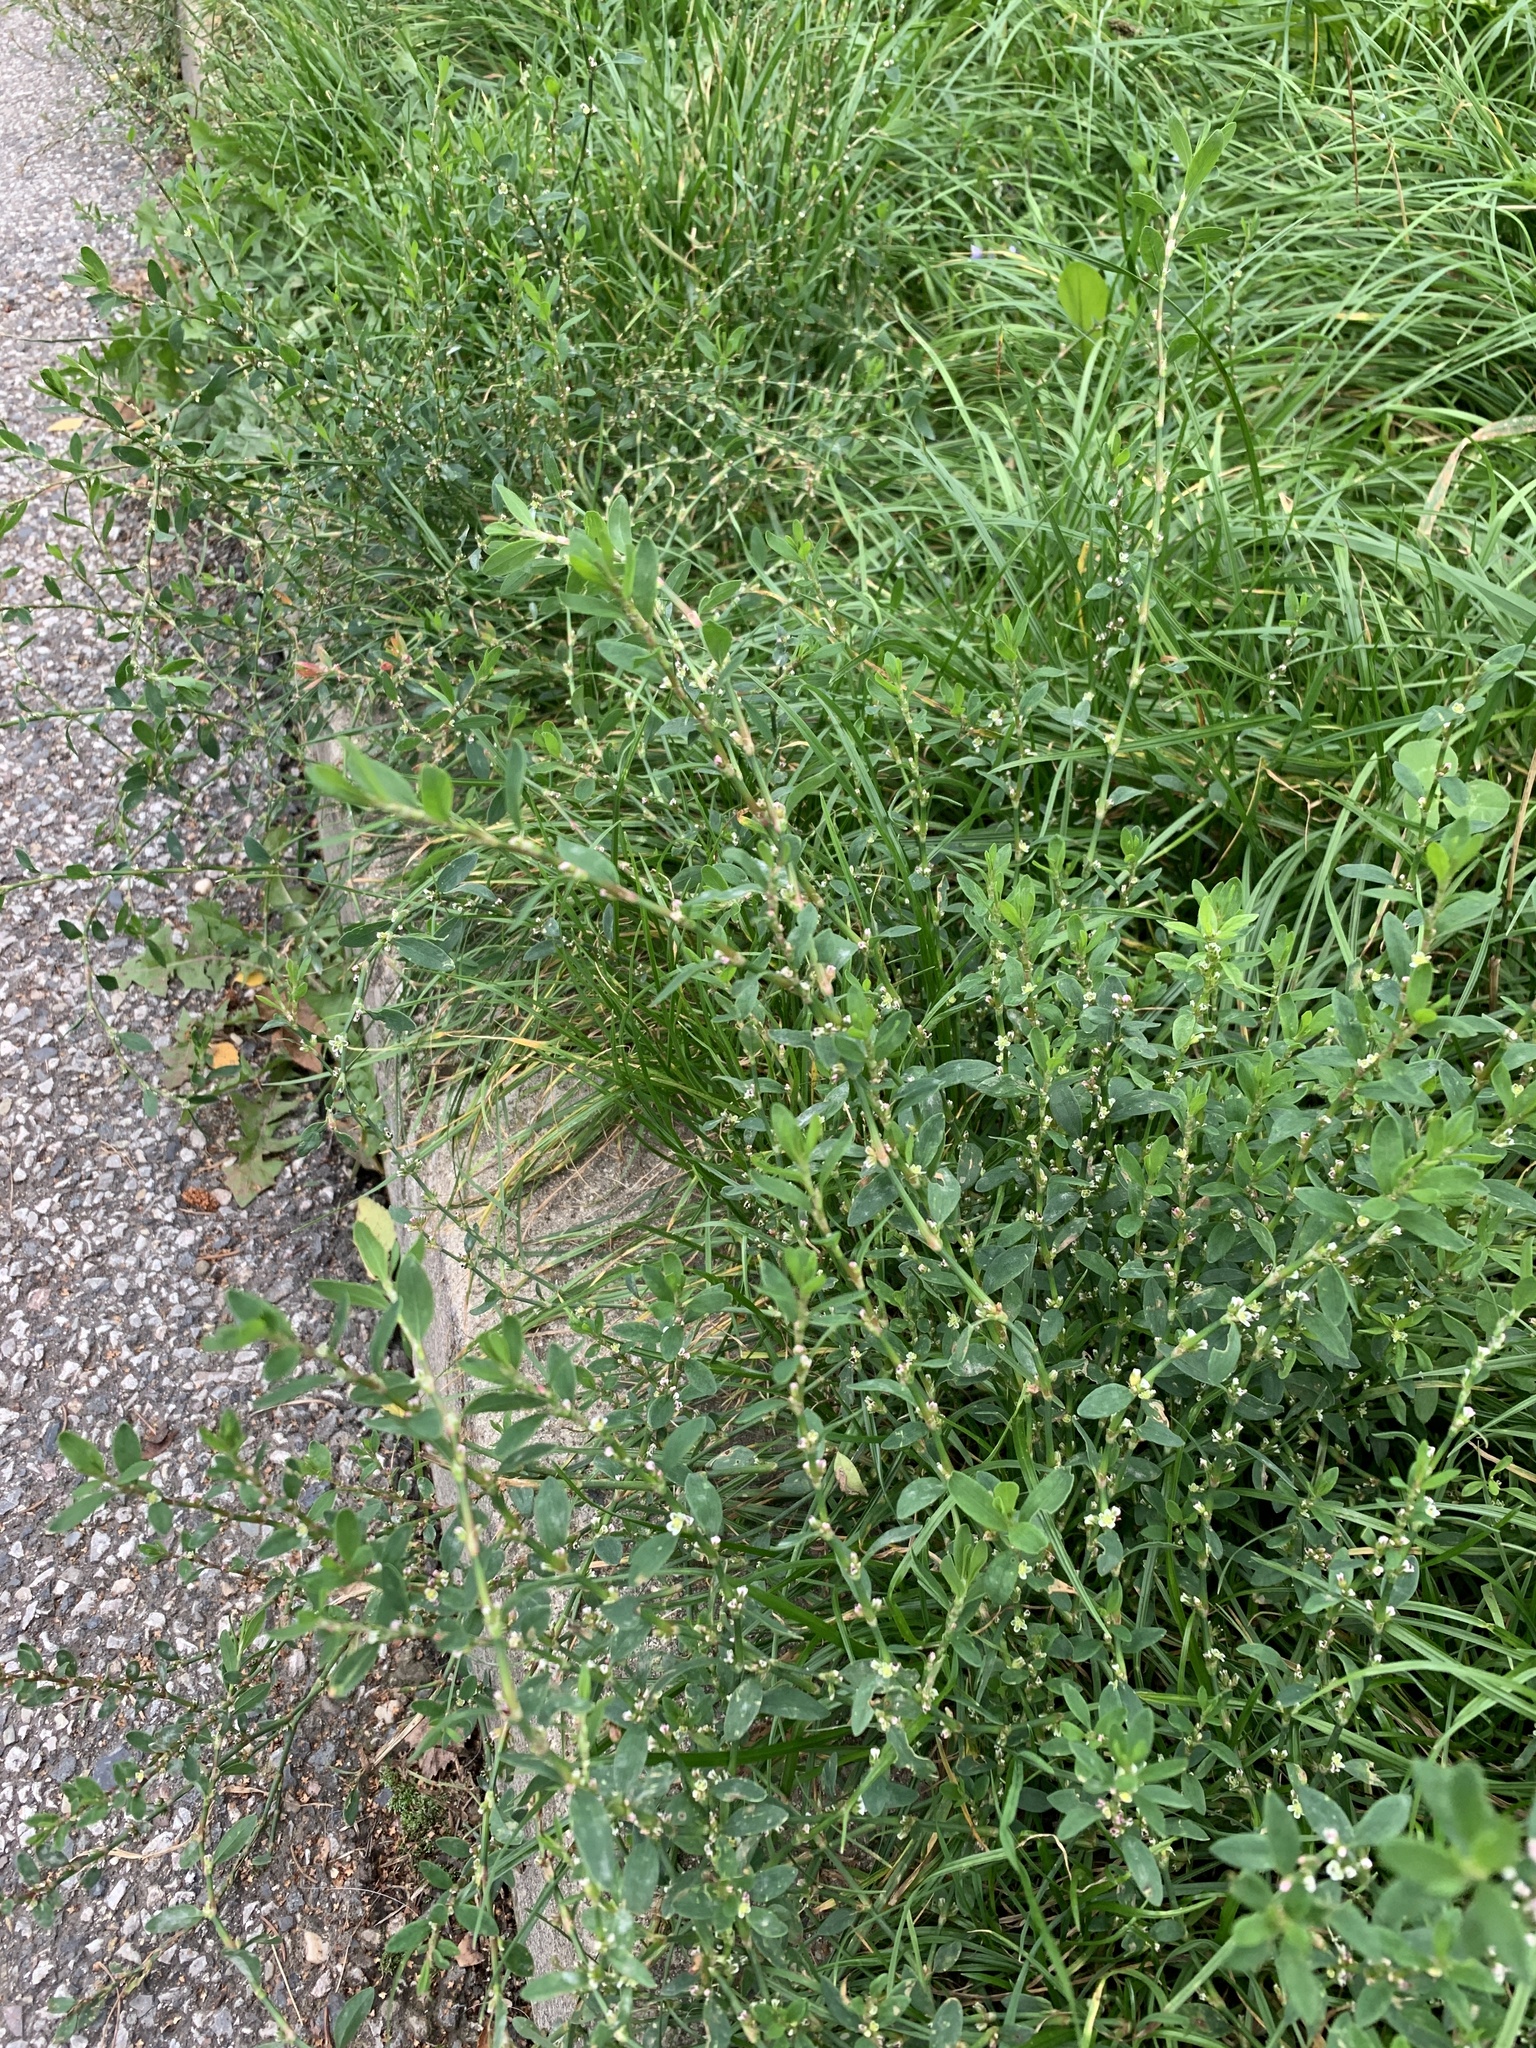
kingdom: Plantae
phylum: Tracheophyta
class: Magnoliopsida
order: Caryophyllales
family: Polygonaceae
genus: Polygonum
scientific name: Polygonum
